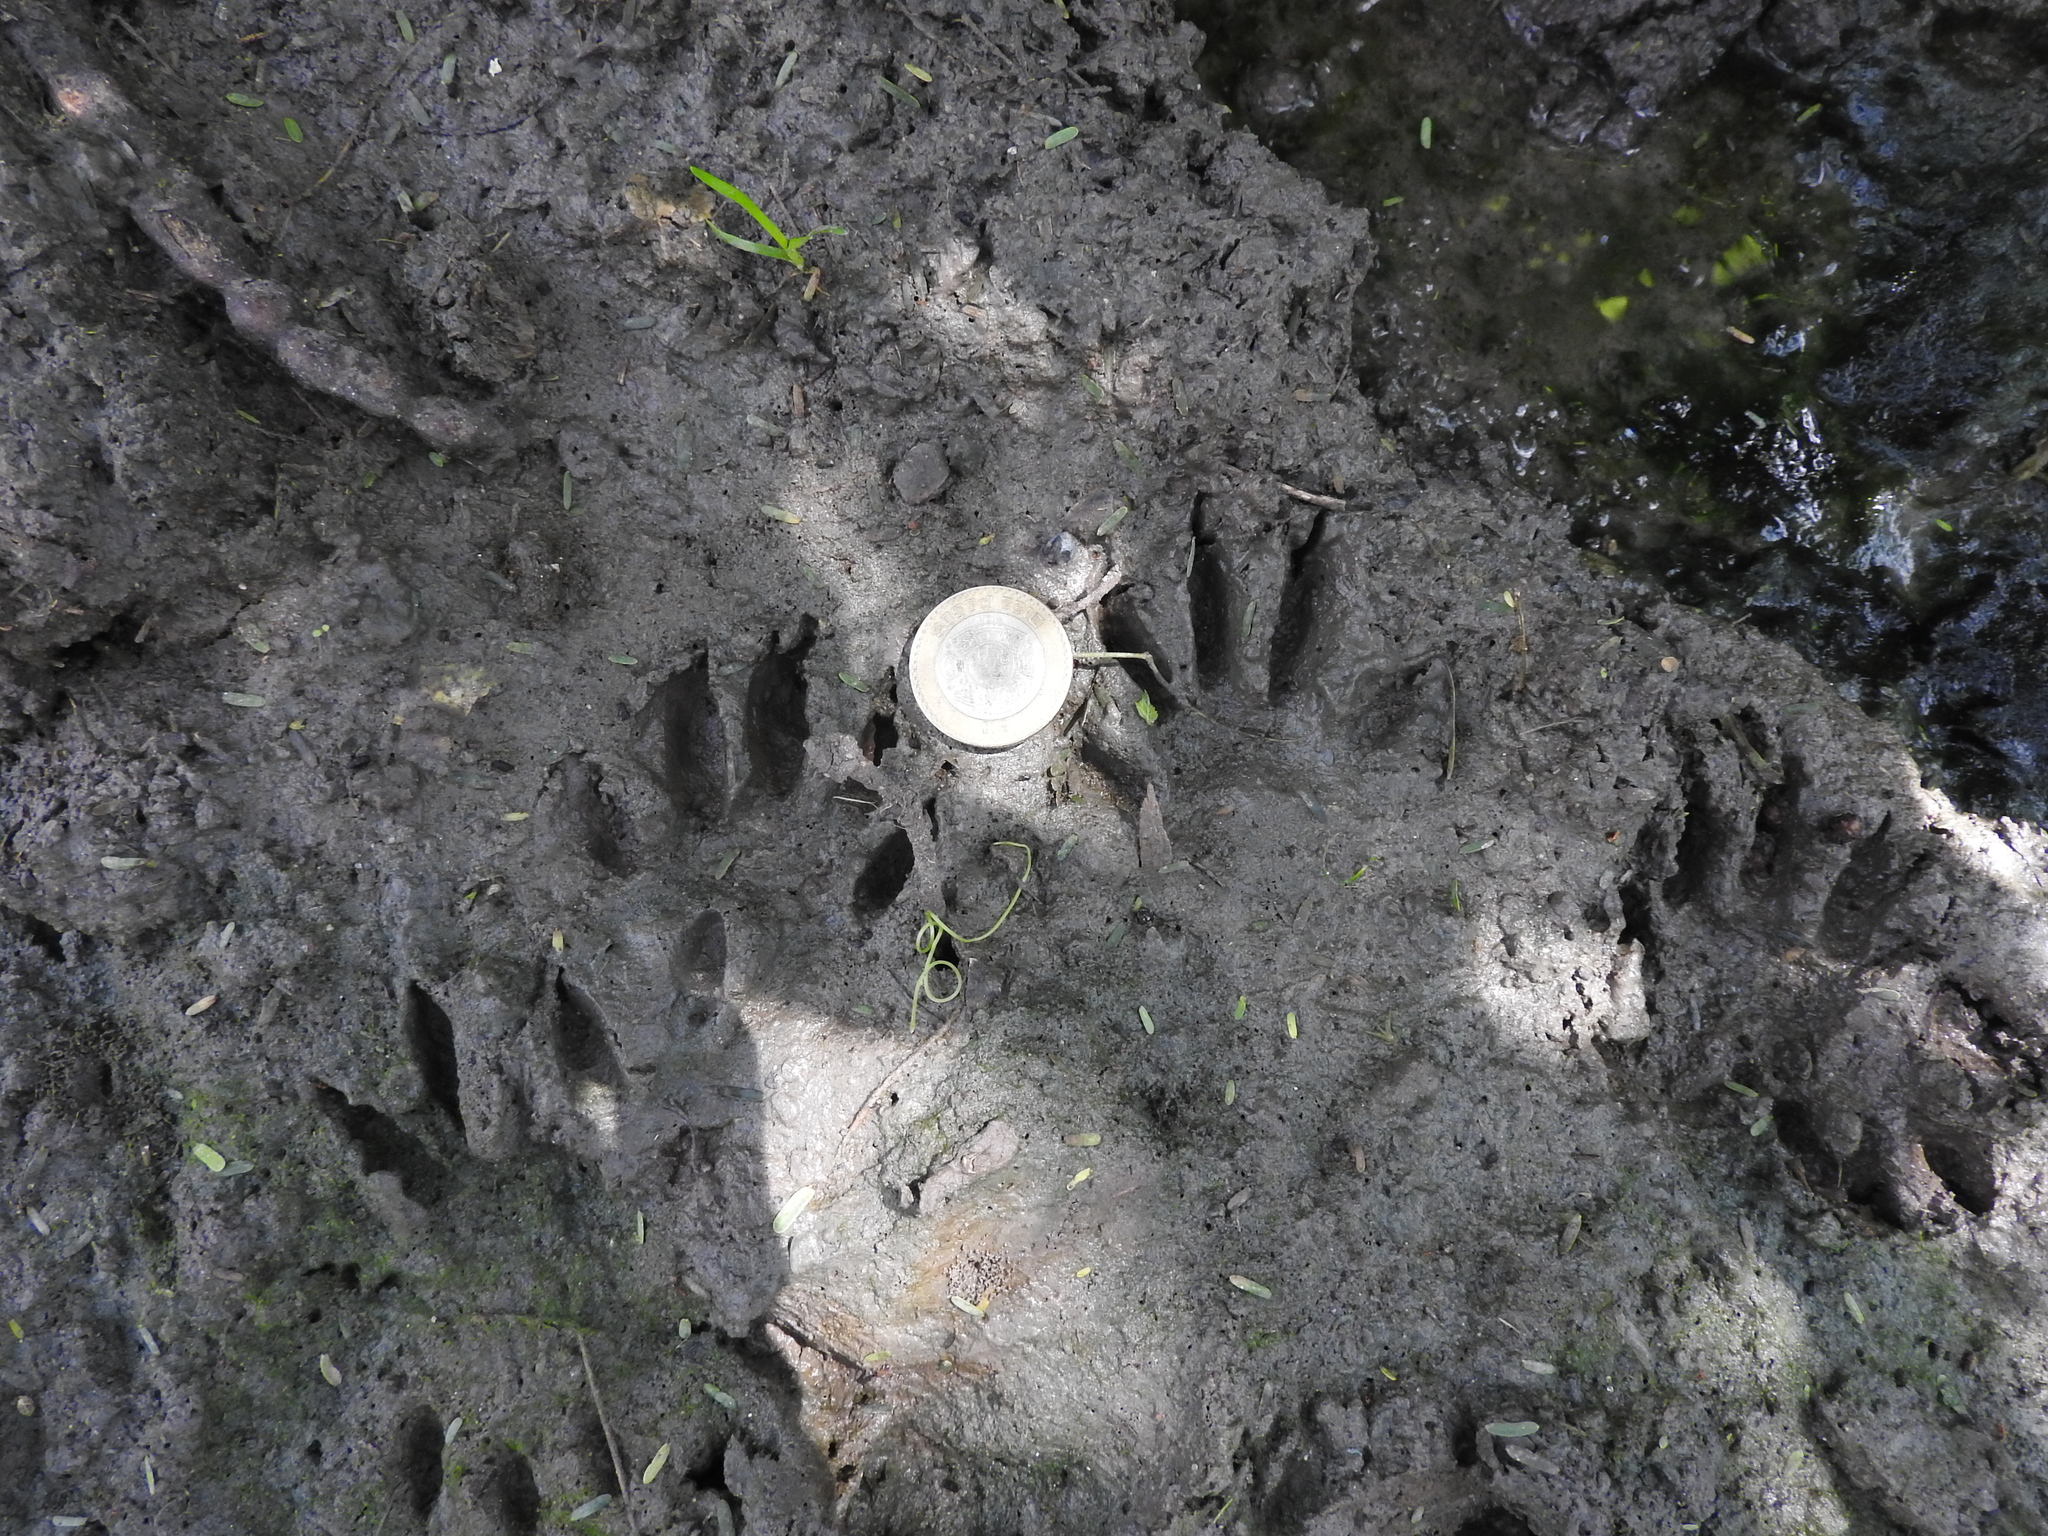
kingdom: Animalia
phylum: Chordata
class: Mammalia
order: Carnivora
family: Procyonidae
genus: Procyon
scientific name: Procyon lotor
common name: Raccoon
